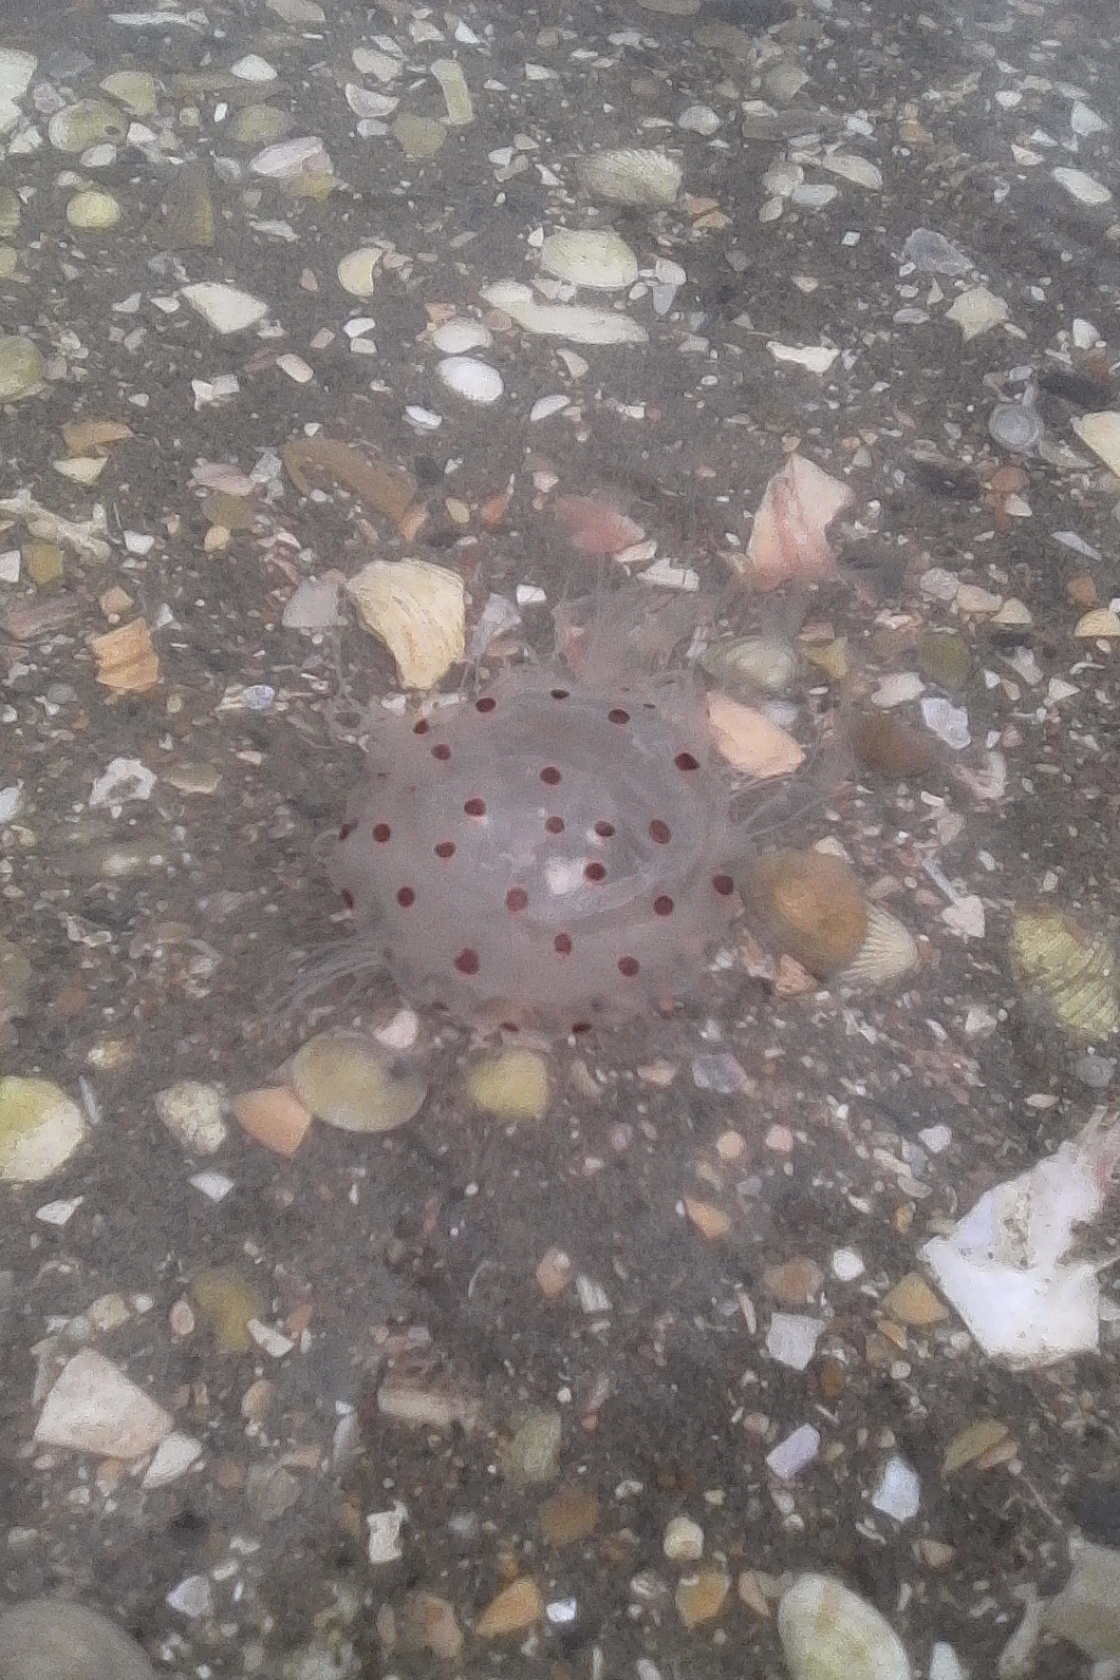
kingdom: Animalia
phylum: Cnidaria
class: Scyphozoa
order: Semaeostomeae
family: Cyaneidae
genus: Desmonema
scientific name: Desmonema gaudichaudi
